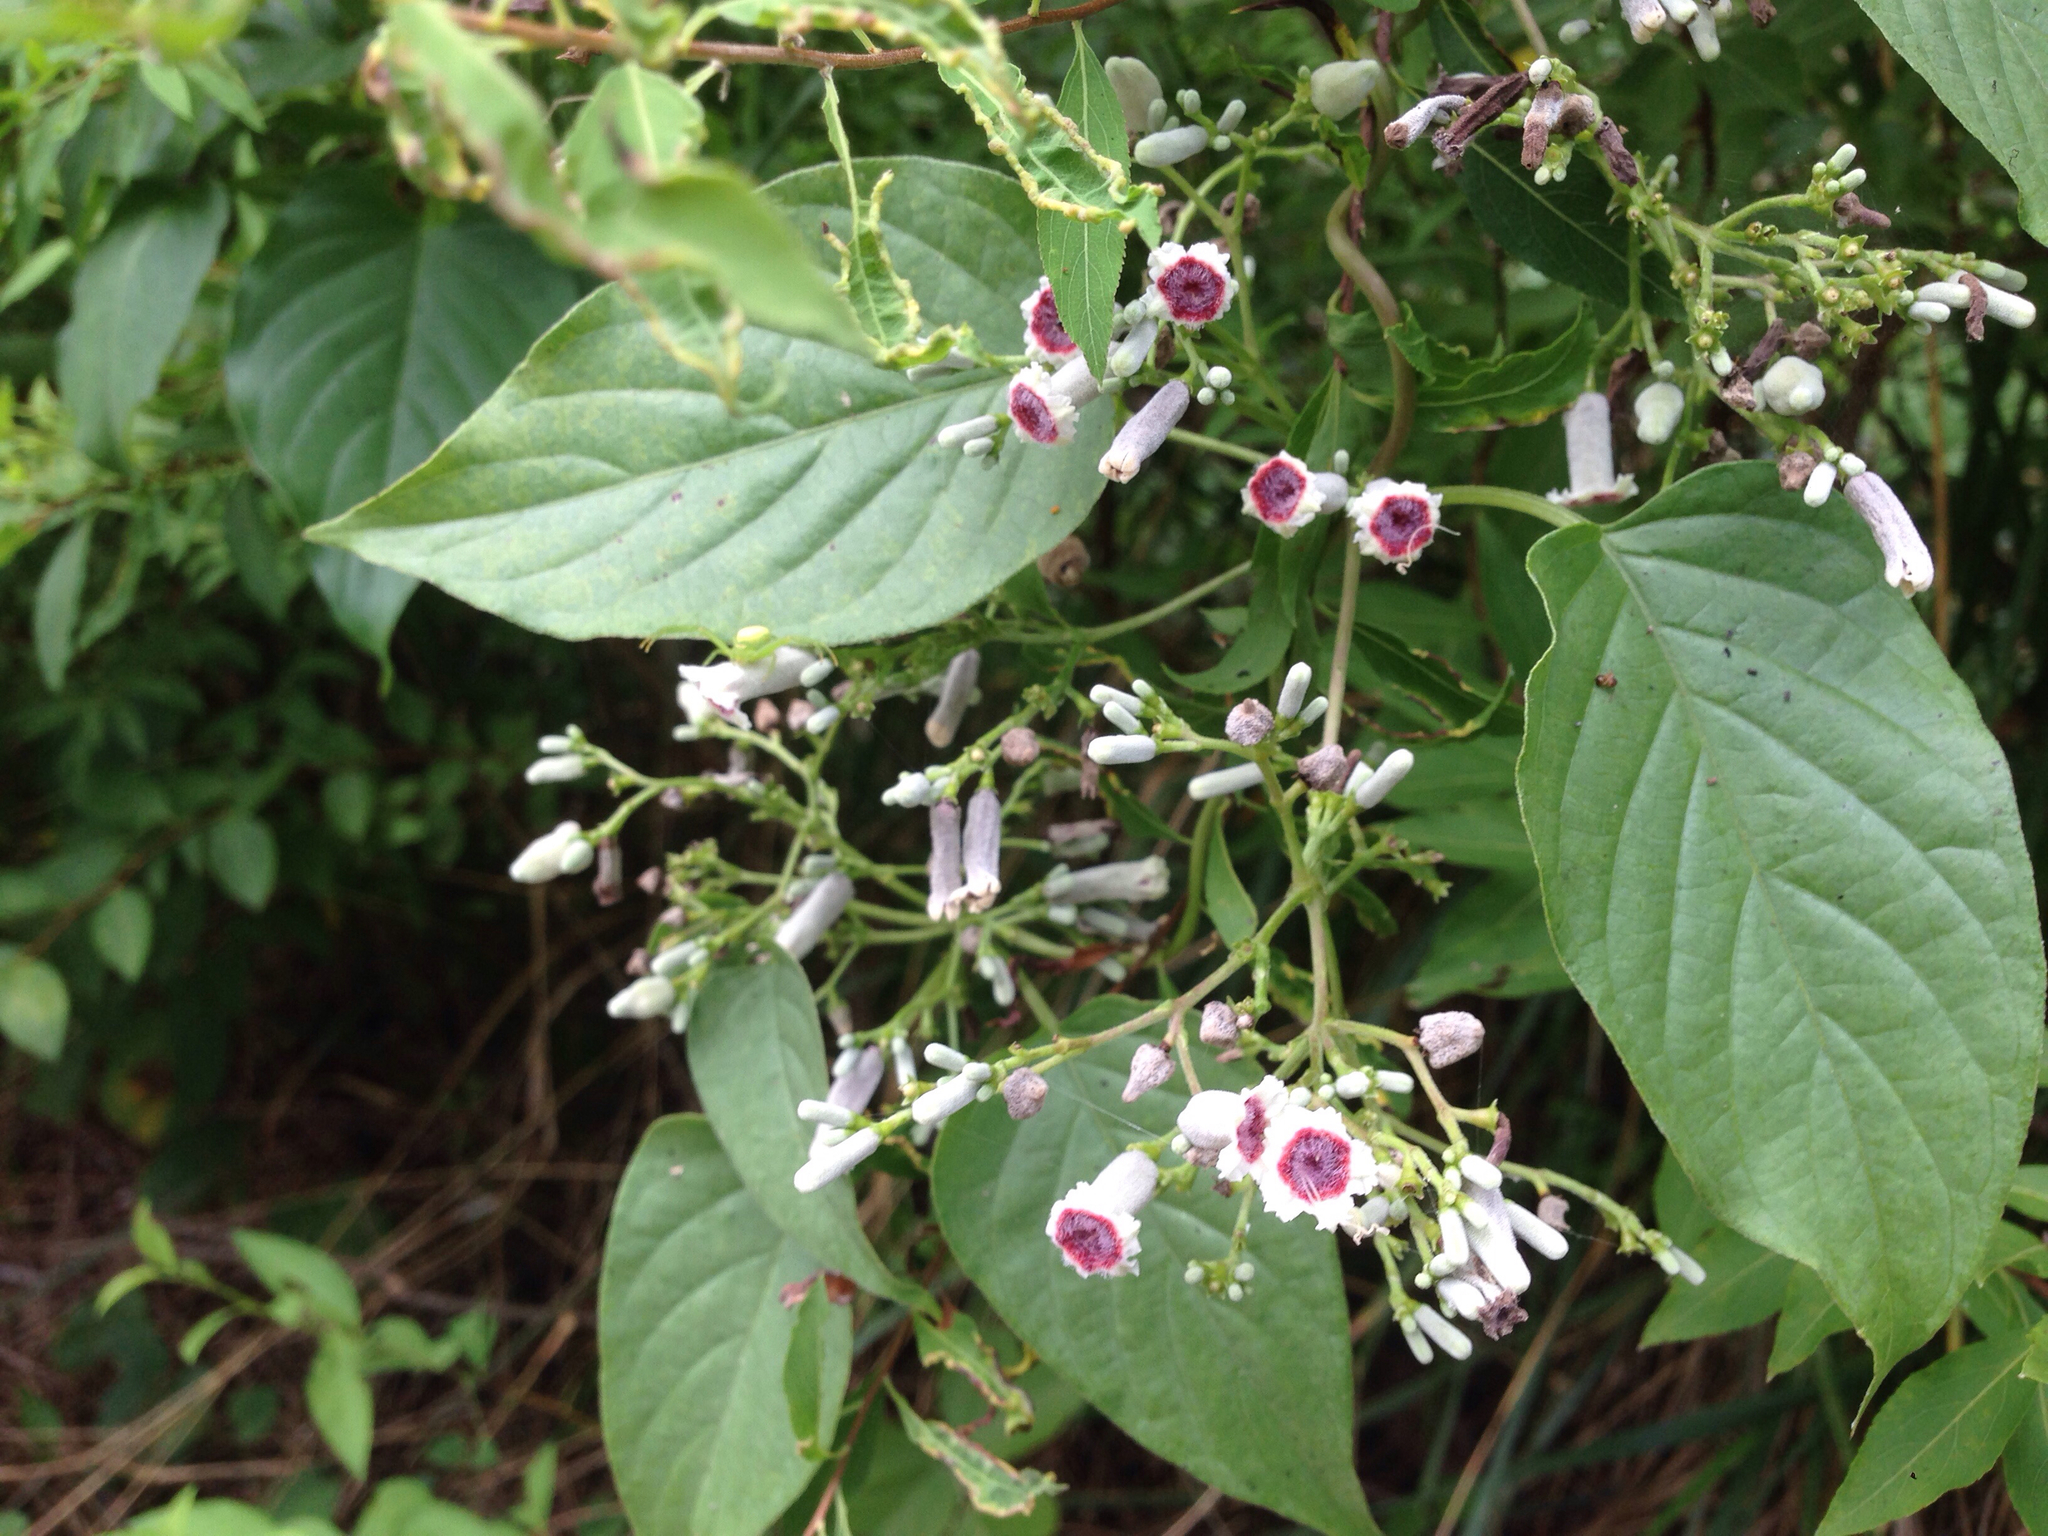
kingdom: Plantae
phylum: Tracheophyta
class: Magnoliopsida
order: Gentianales
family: Rubiaceae
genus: Paederia
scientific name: Paederia foetida
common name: Stinkvine
